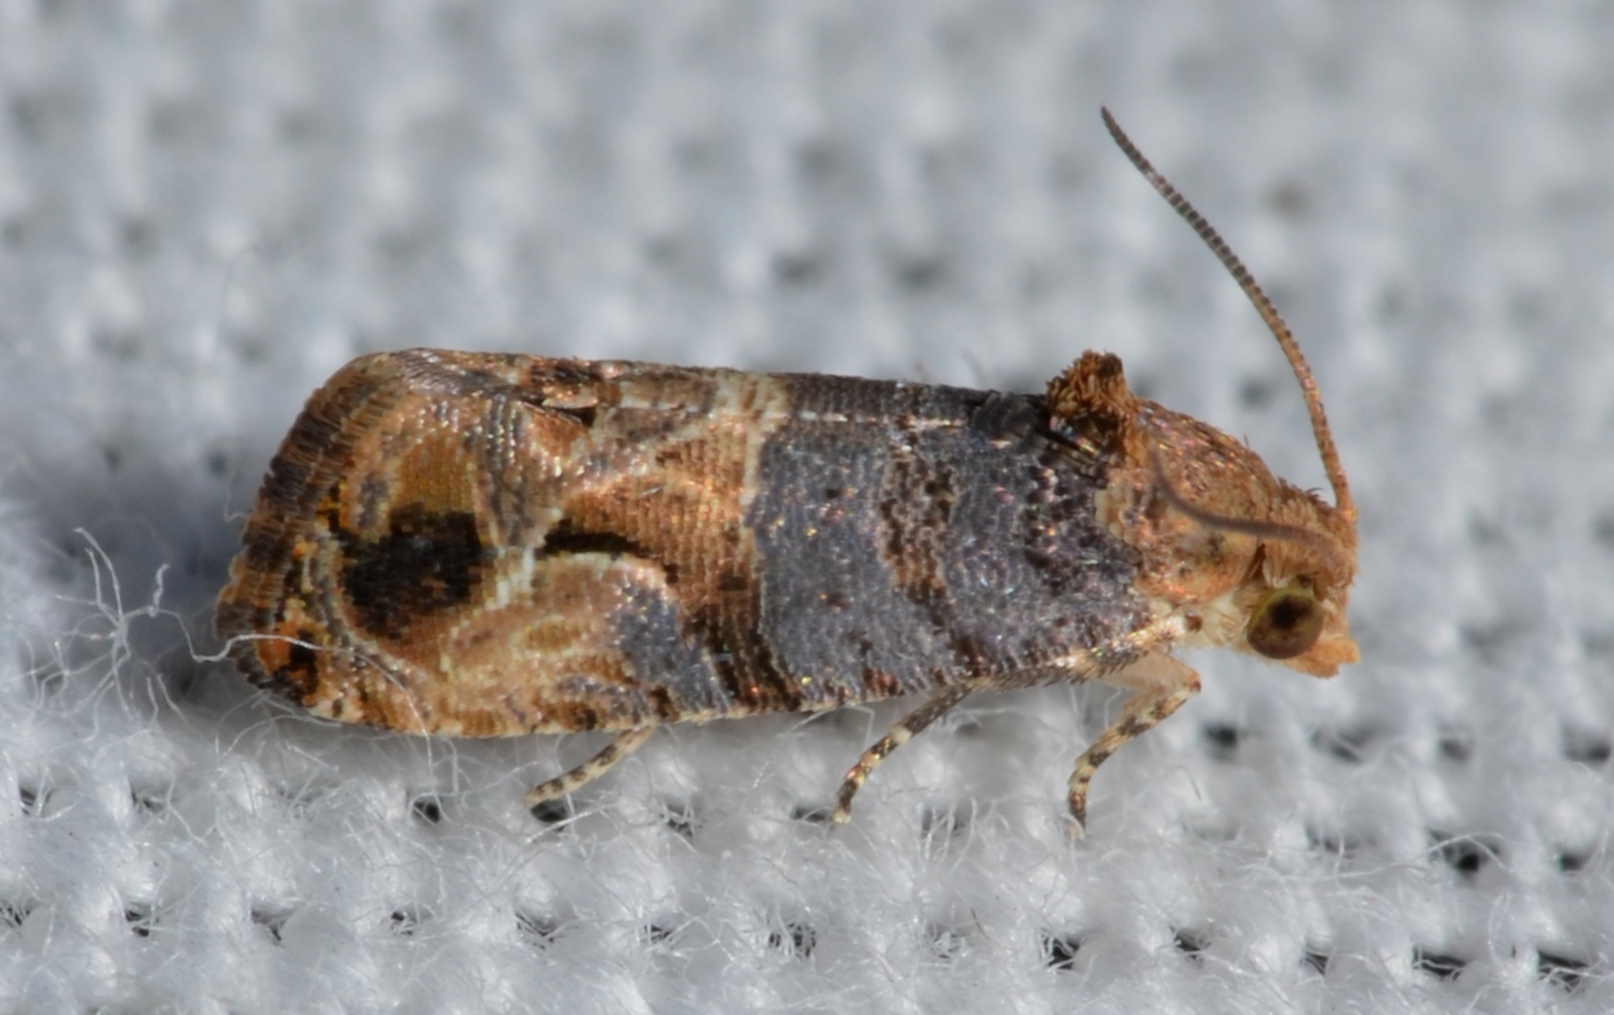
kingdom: Animalia
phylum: Arthropoda
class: Insecta
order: Lepidoptera
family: Tortricidae
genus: Paralobesia
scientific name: Paralobesia viteana
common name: Grape berry moth
